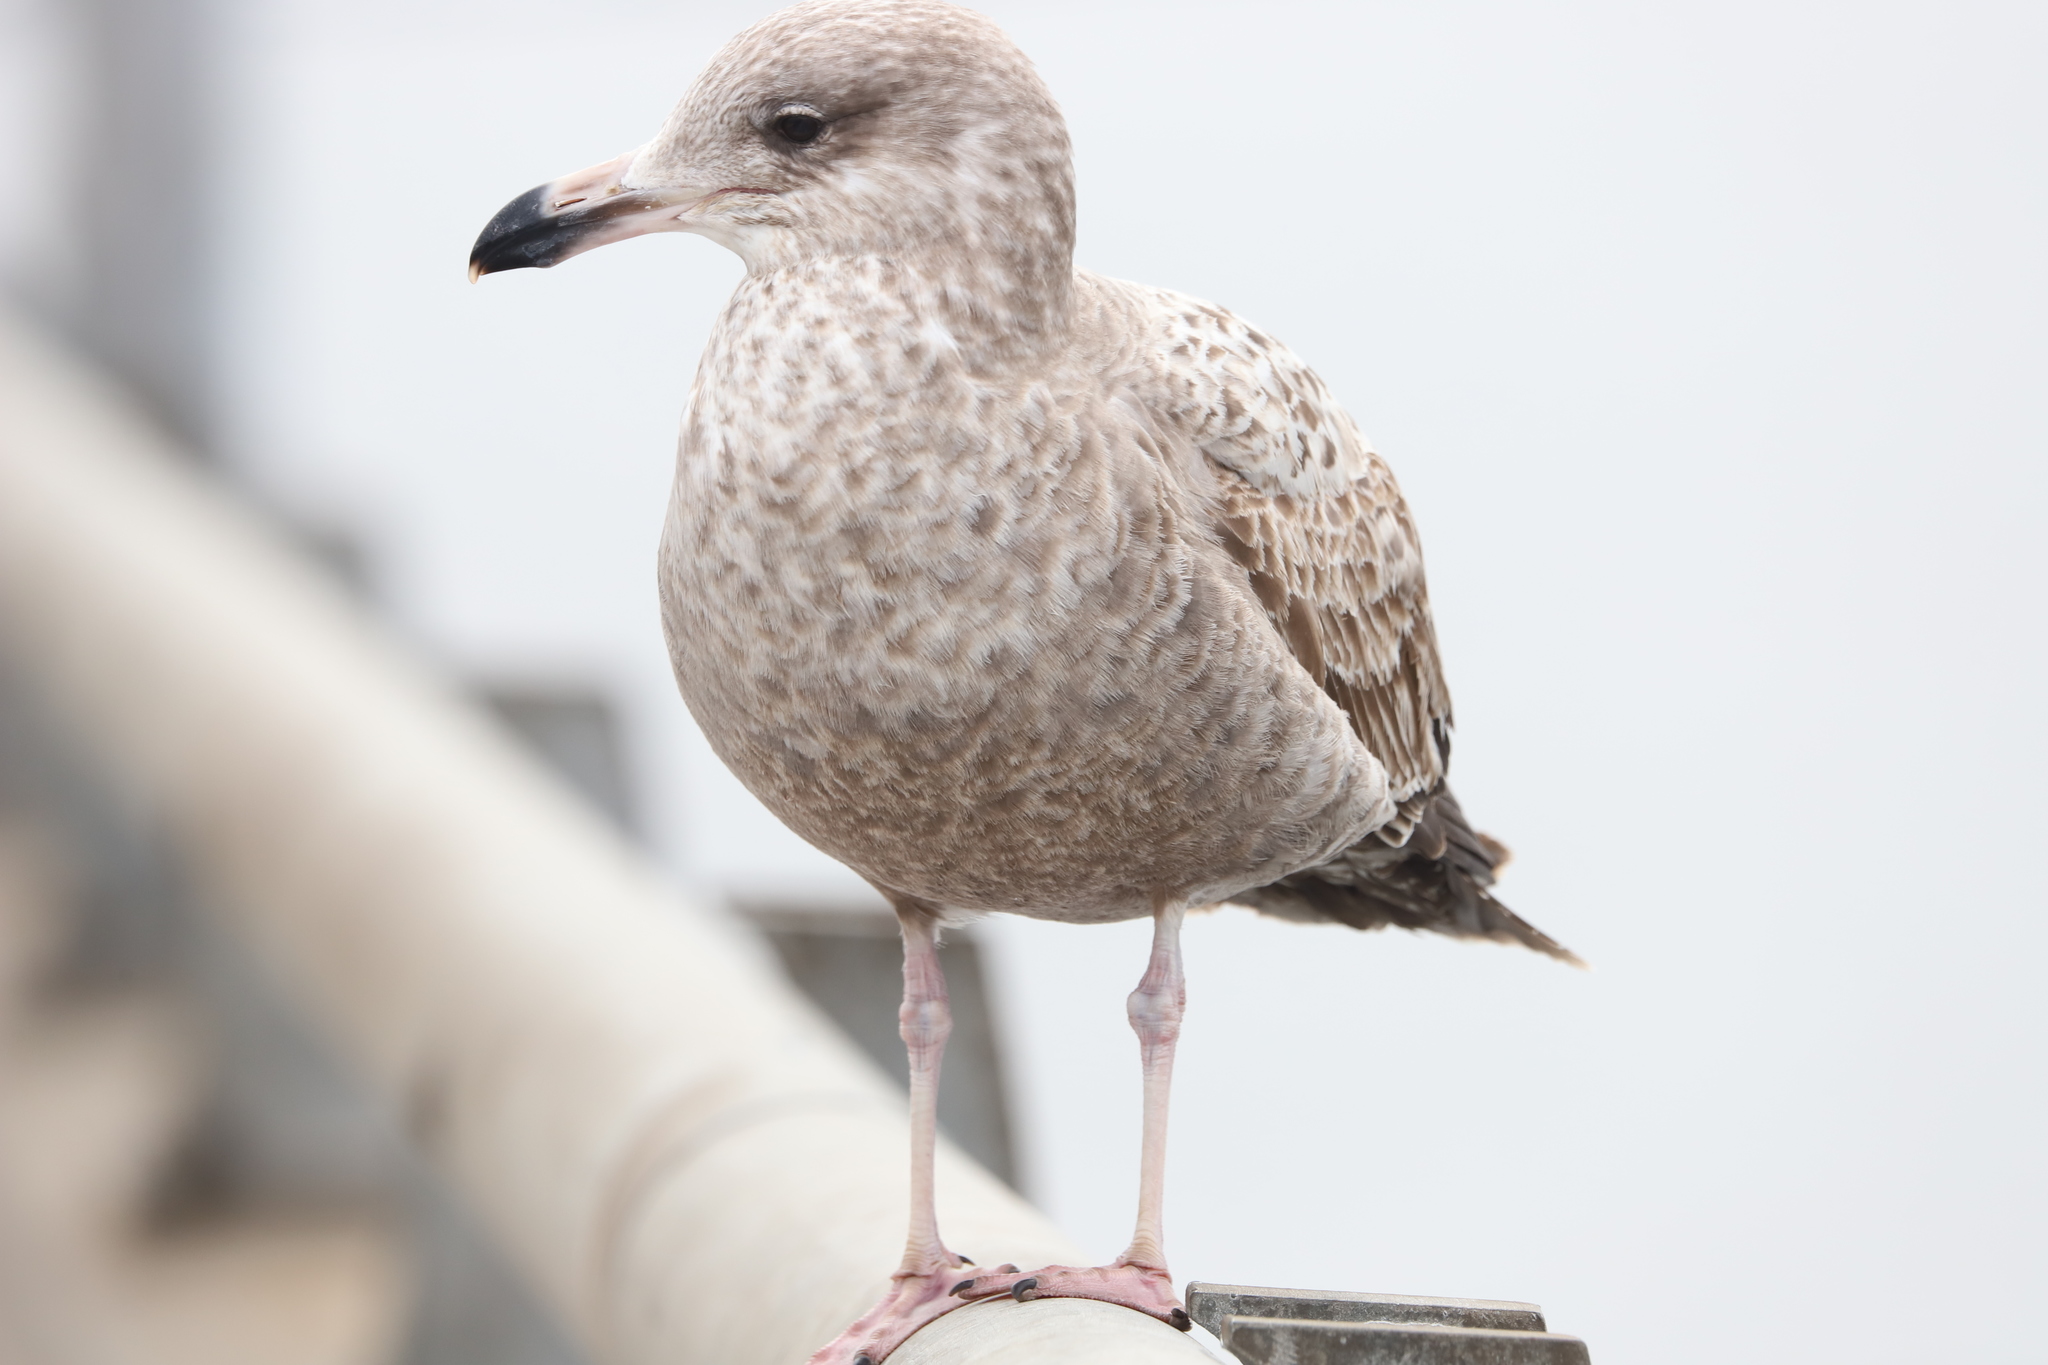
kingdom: Animalia
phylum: Chordata
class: Aves
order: Charadriiformes
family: Laridae
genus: Larus
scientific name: Larus argentatus
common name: Herring gull
